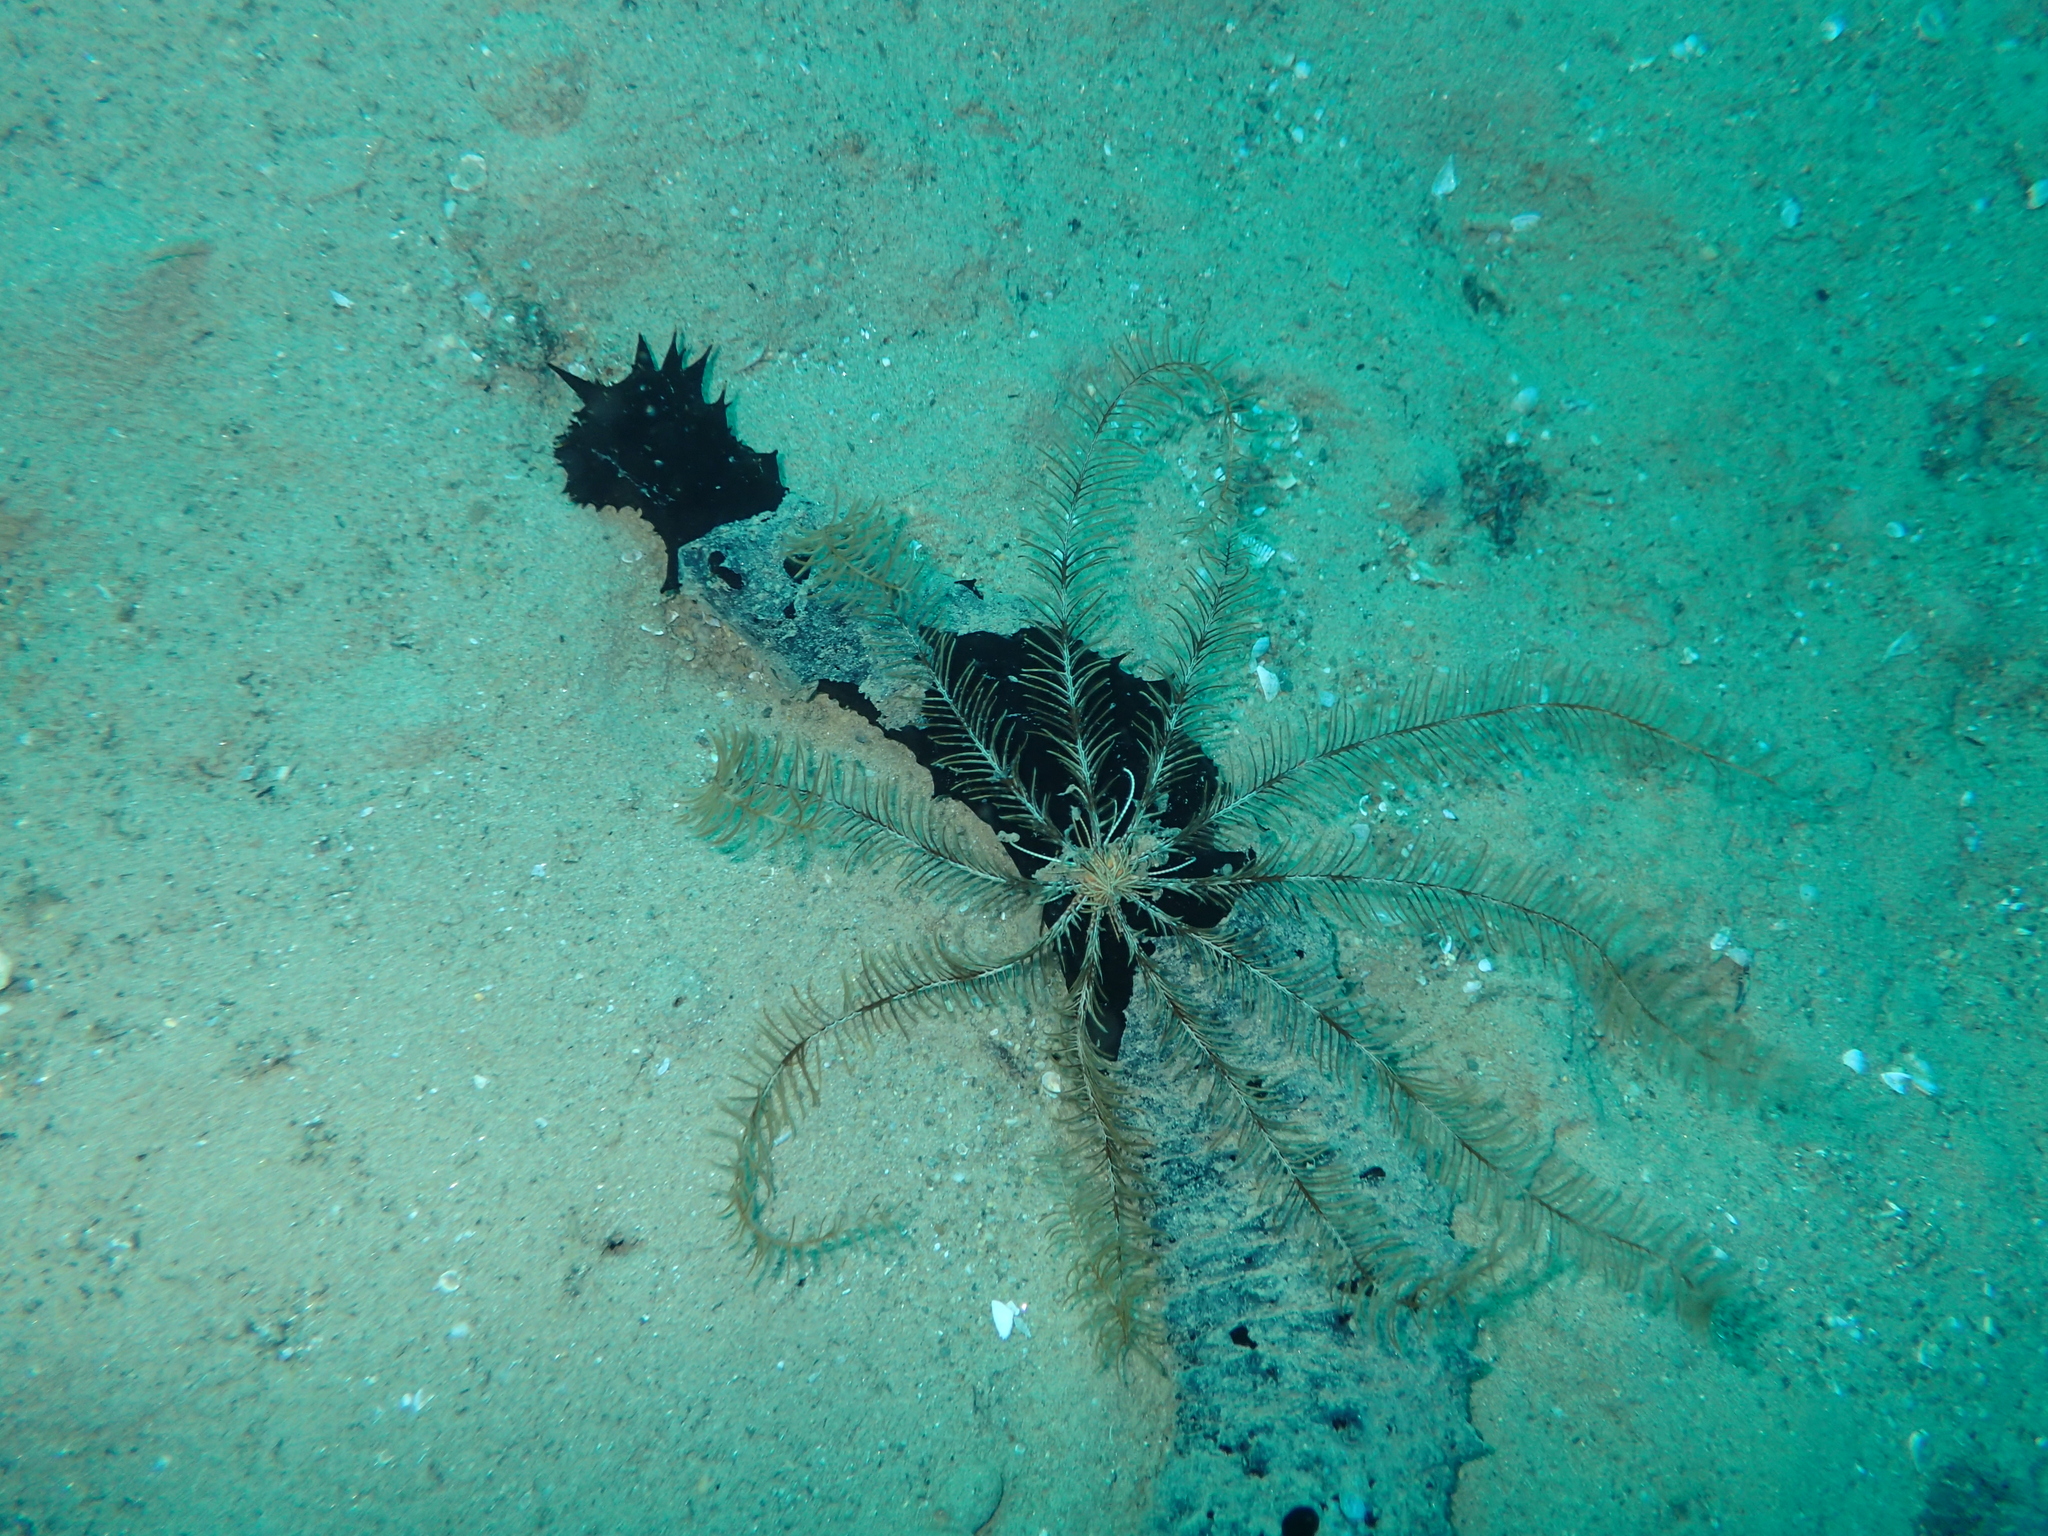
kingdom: Animalia
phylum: Echinodermata
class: Crinoidea
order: Comatulida
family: Antedonidae
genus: Antedon
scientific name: Antedon mediterranea
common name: Feather star
